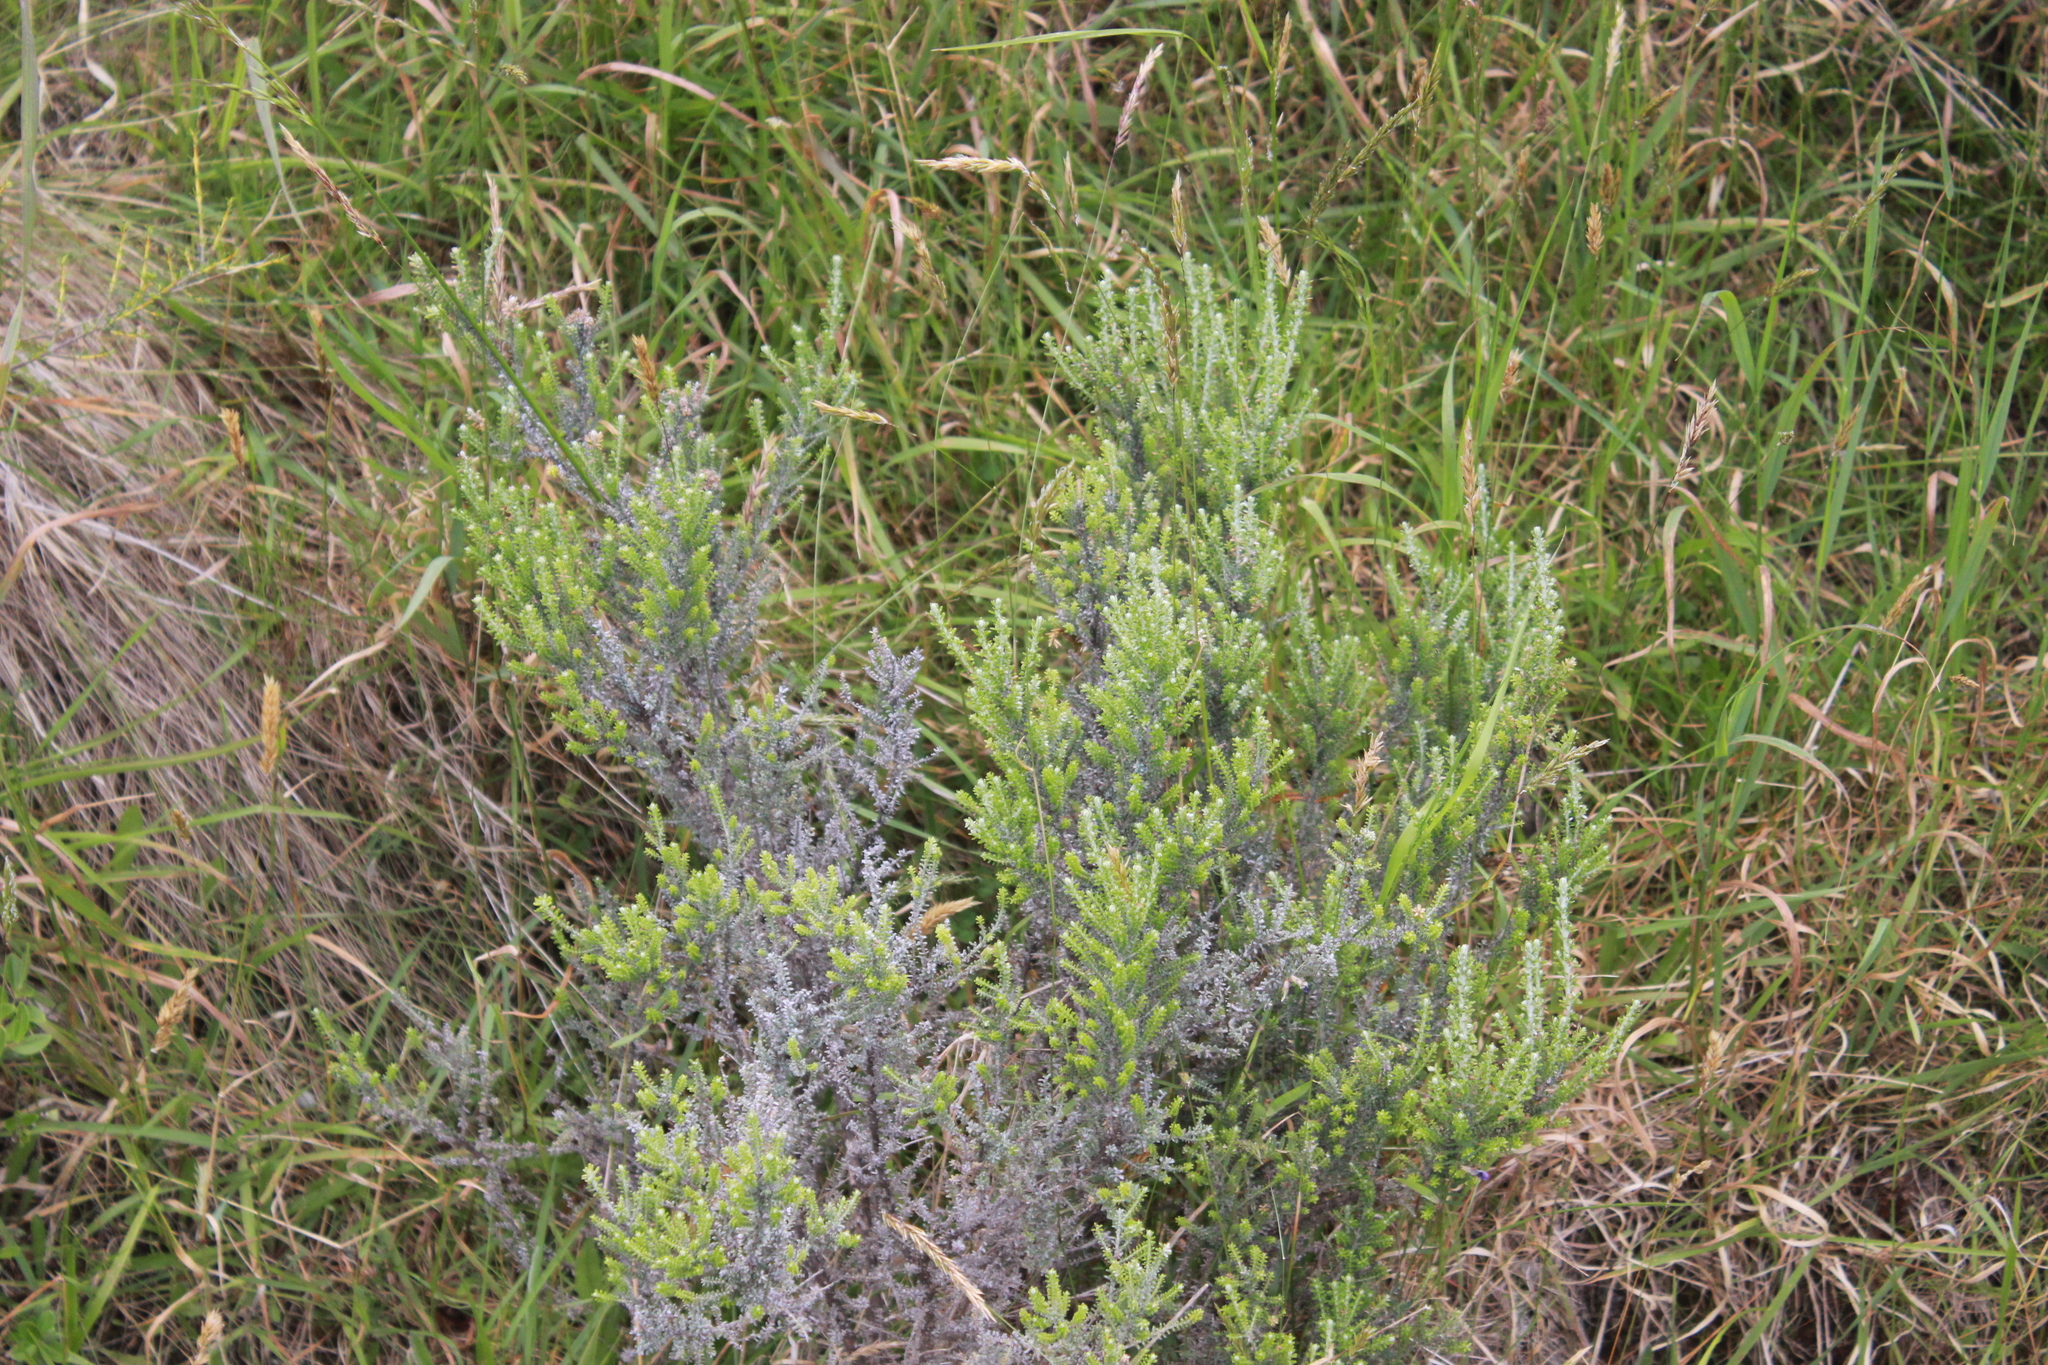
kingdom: Plantae
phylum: Tracheophyta
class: Magnoliopsida
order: Asterales
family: Asteraceae
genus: Ozothamnus
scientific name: Ozothamnus leptophyllus
